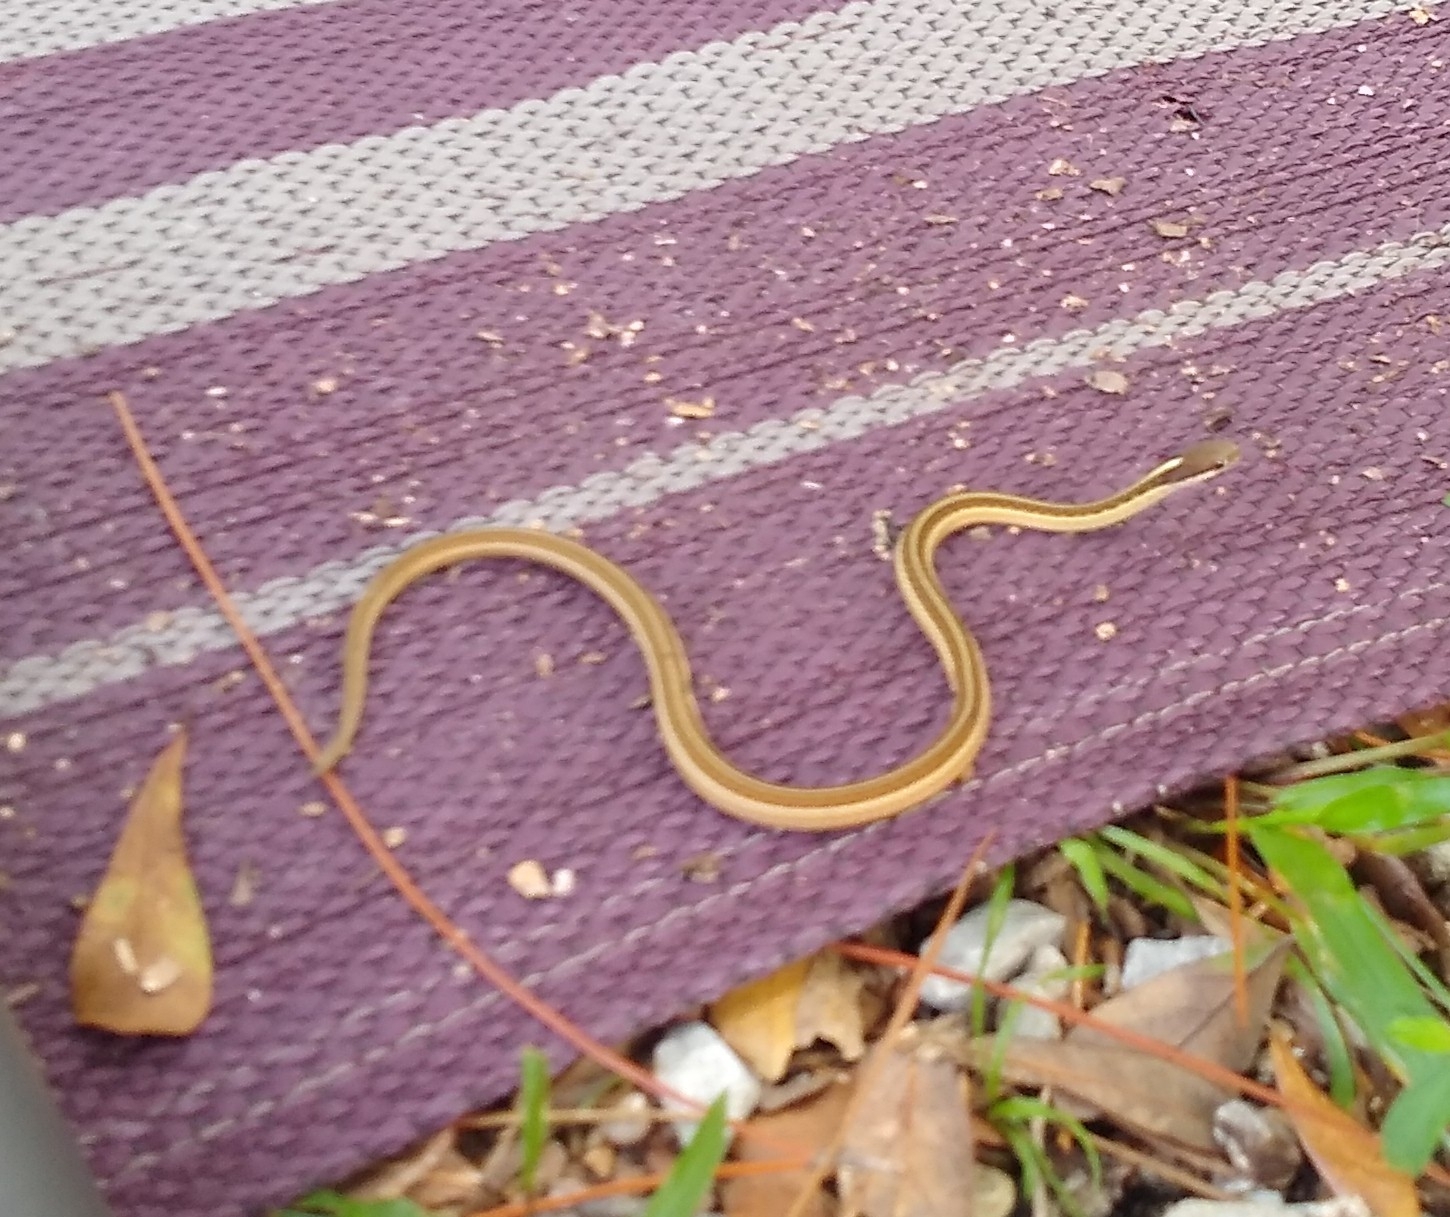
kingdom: Animalia
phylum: Chordata
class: Squamata
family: Colubridae
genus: Thamnophis
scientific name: Thamnophis saurita
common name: Eastern ribbonsnake
